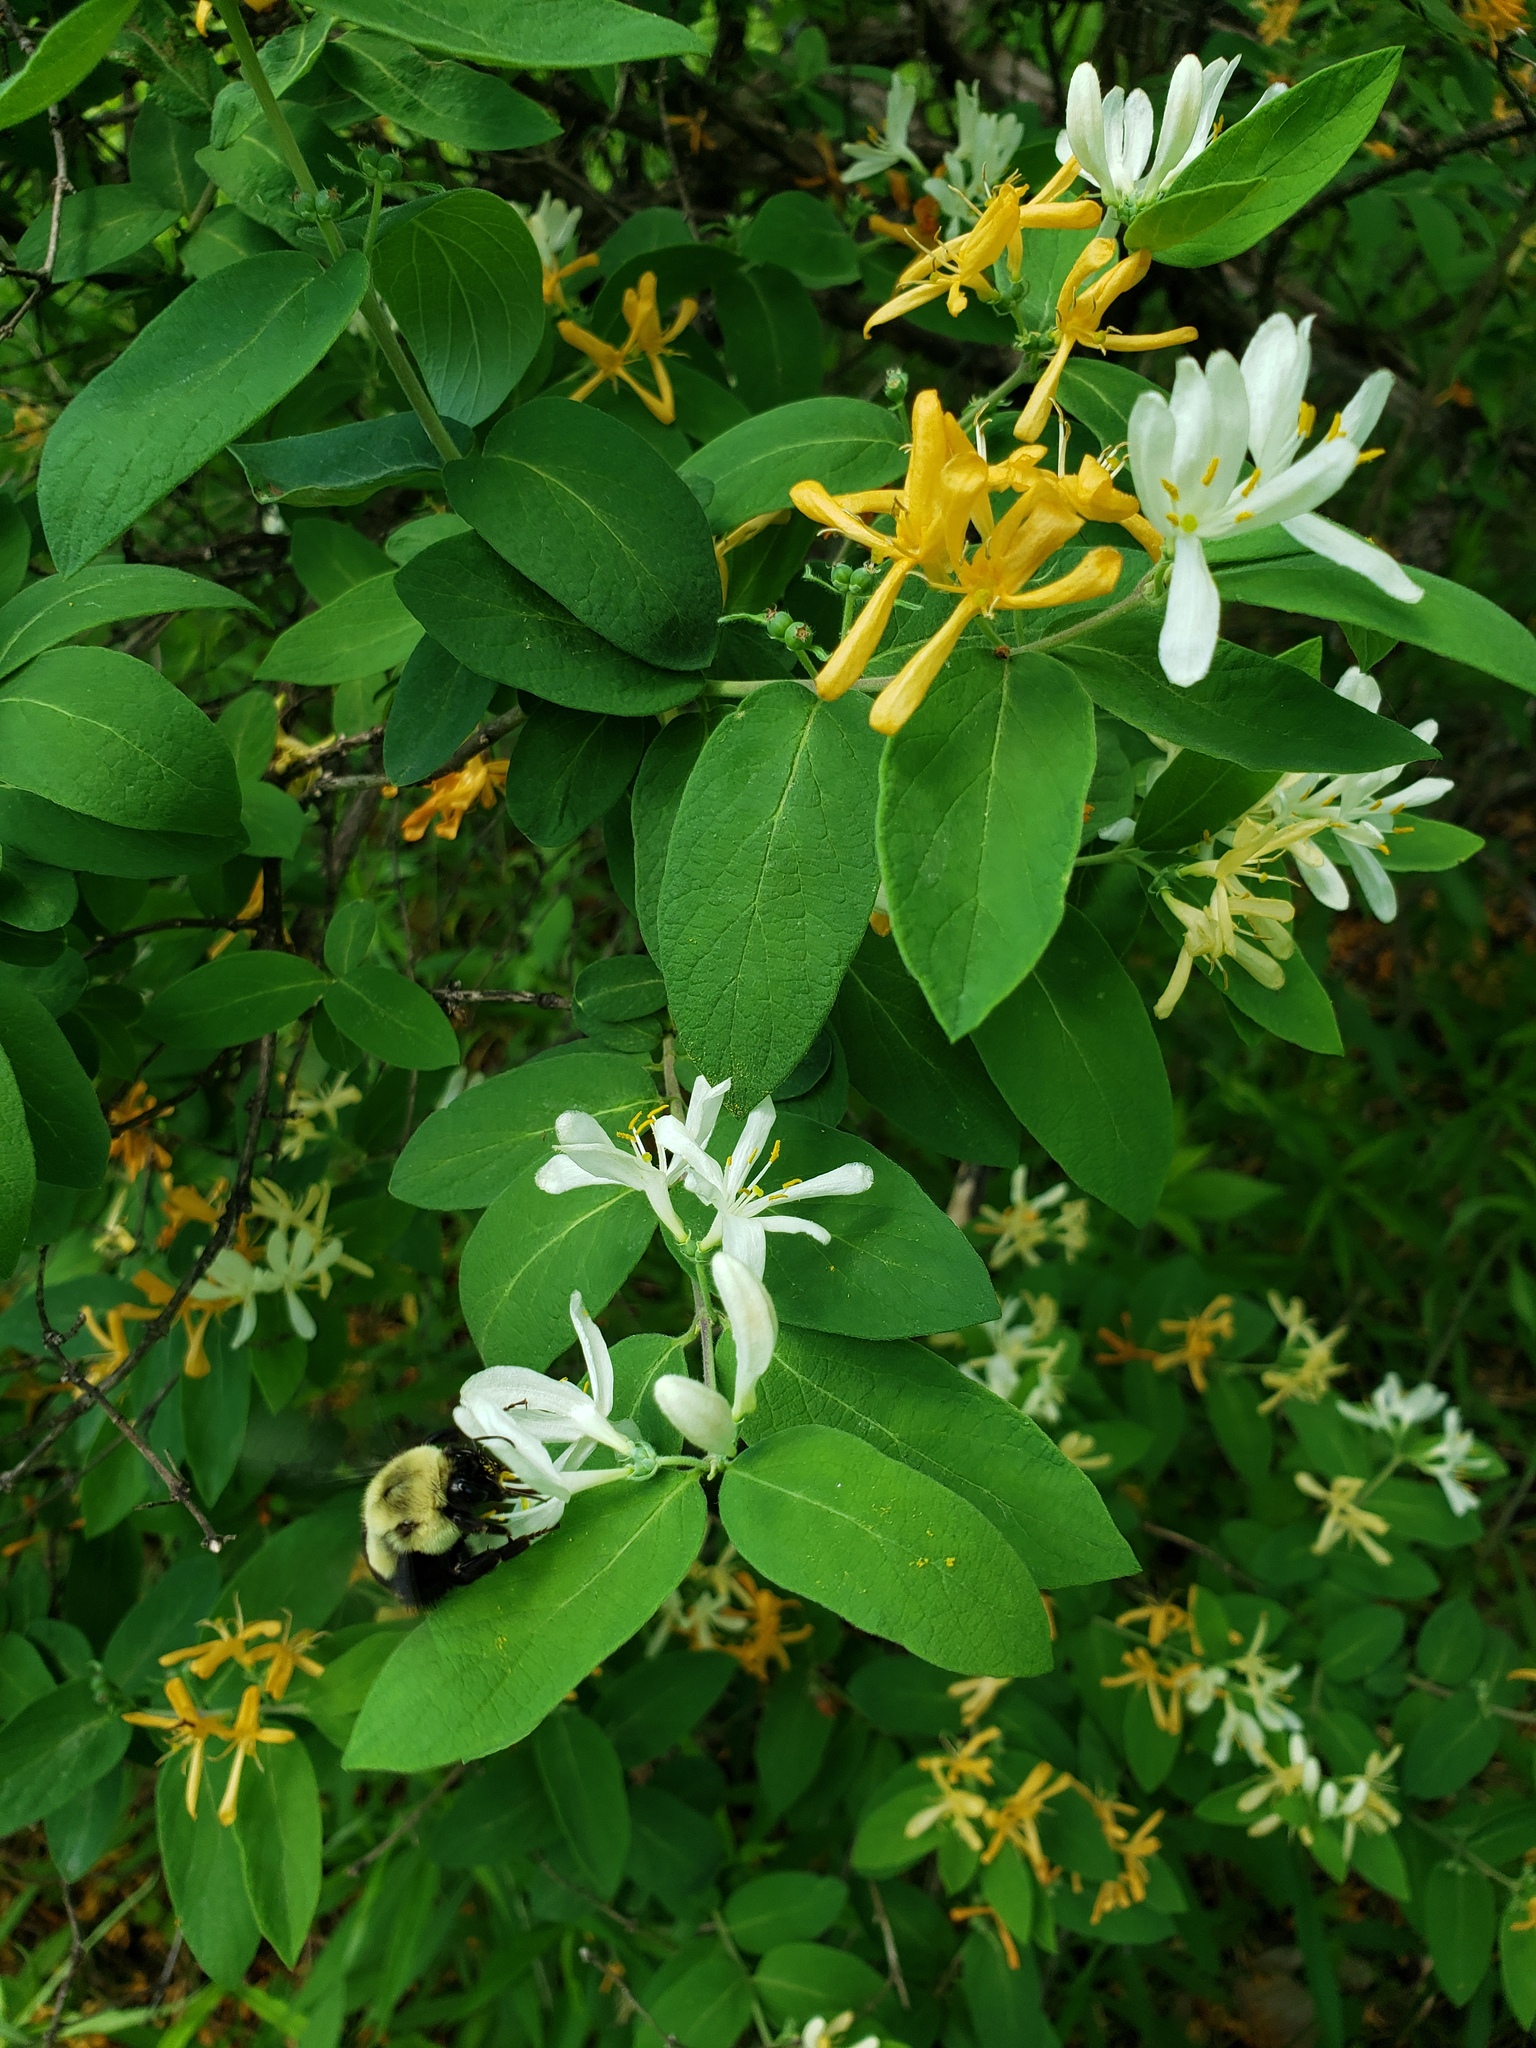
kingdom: Plantae
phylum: Tracheophyta
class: Magnoliopsida
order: Dipsacales
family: Caprifoliaceae
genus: Lonicera
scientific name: Lonicera morrowii
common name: Morrow's honeysuckle
